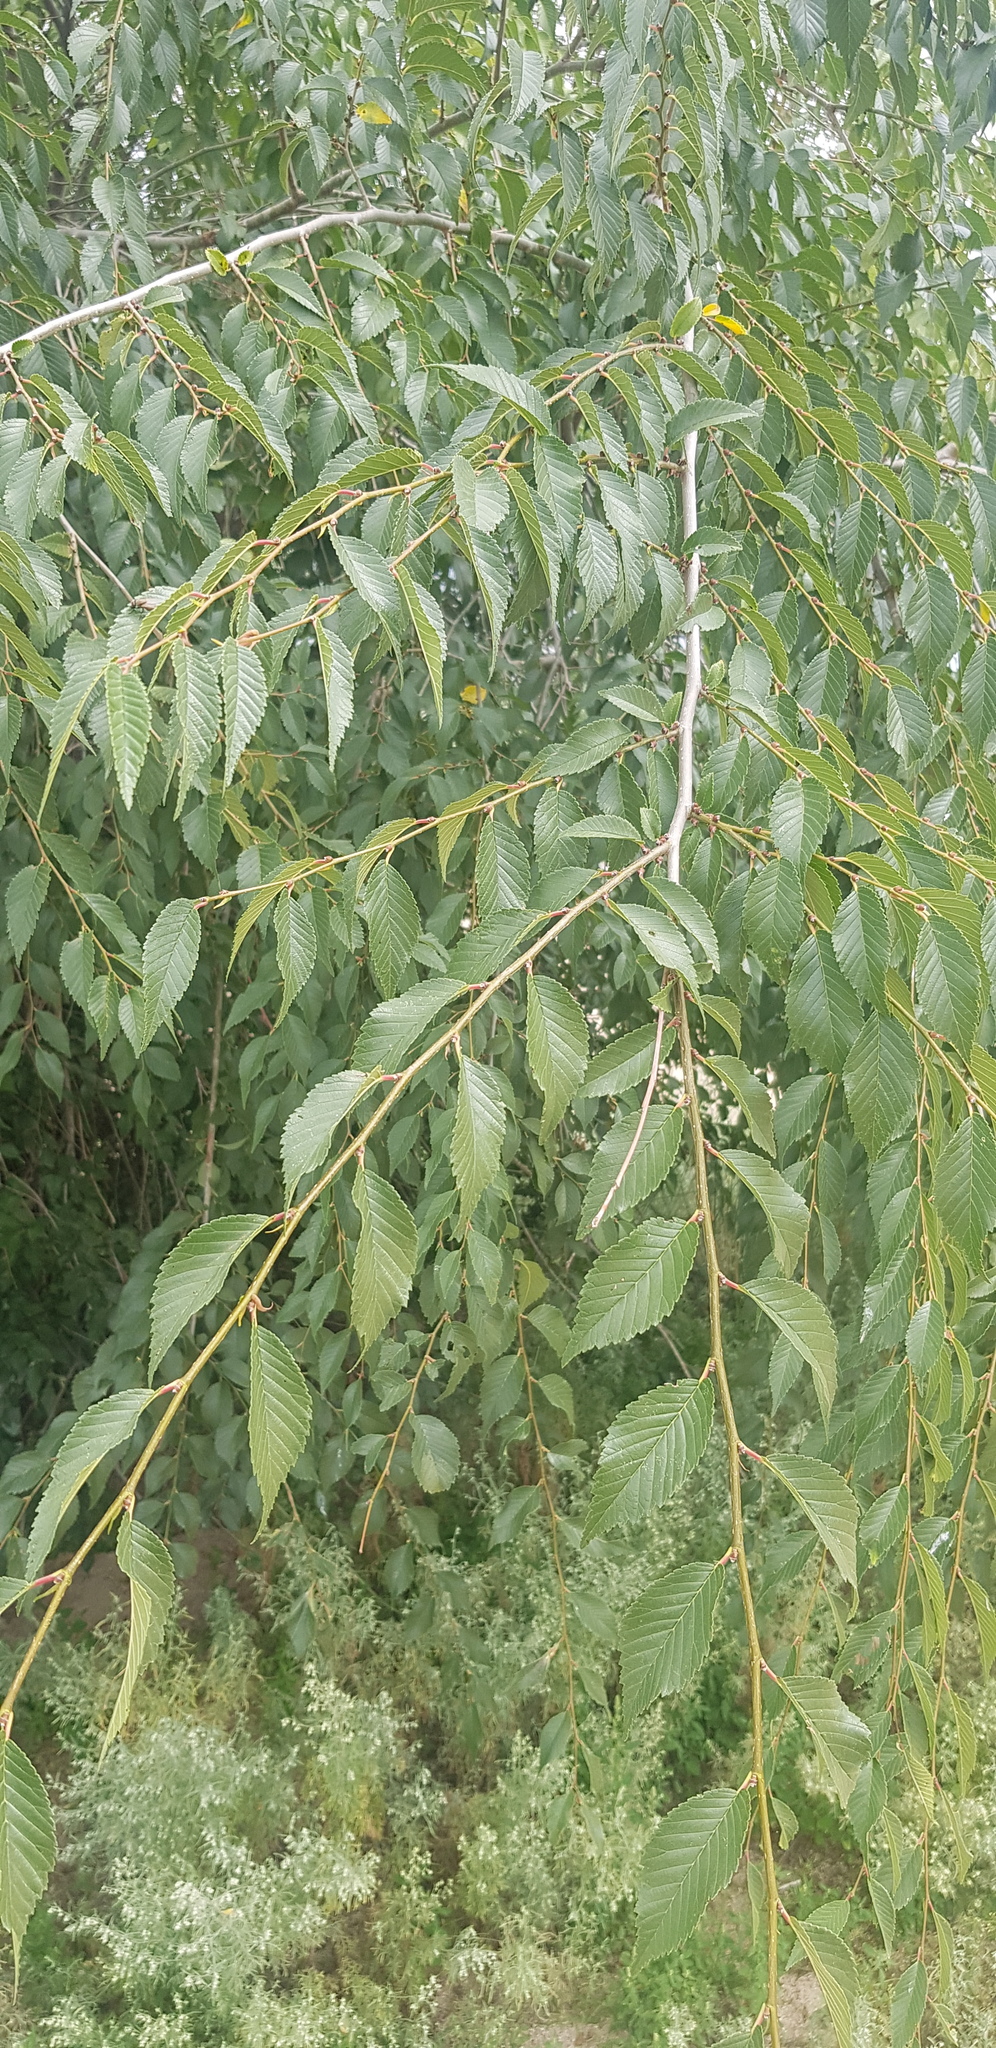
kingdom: Plantae
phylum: Tracheophyta
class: Magnoliopsida
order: Rosales
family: Ulmaceae
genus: Ulmus
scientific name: Ulmus pumila
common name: Siberian elm
